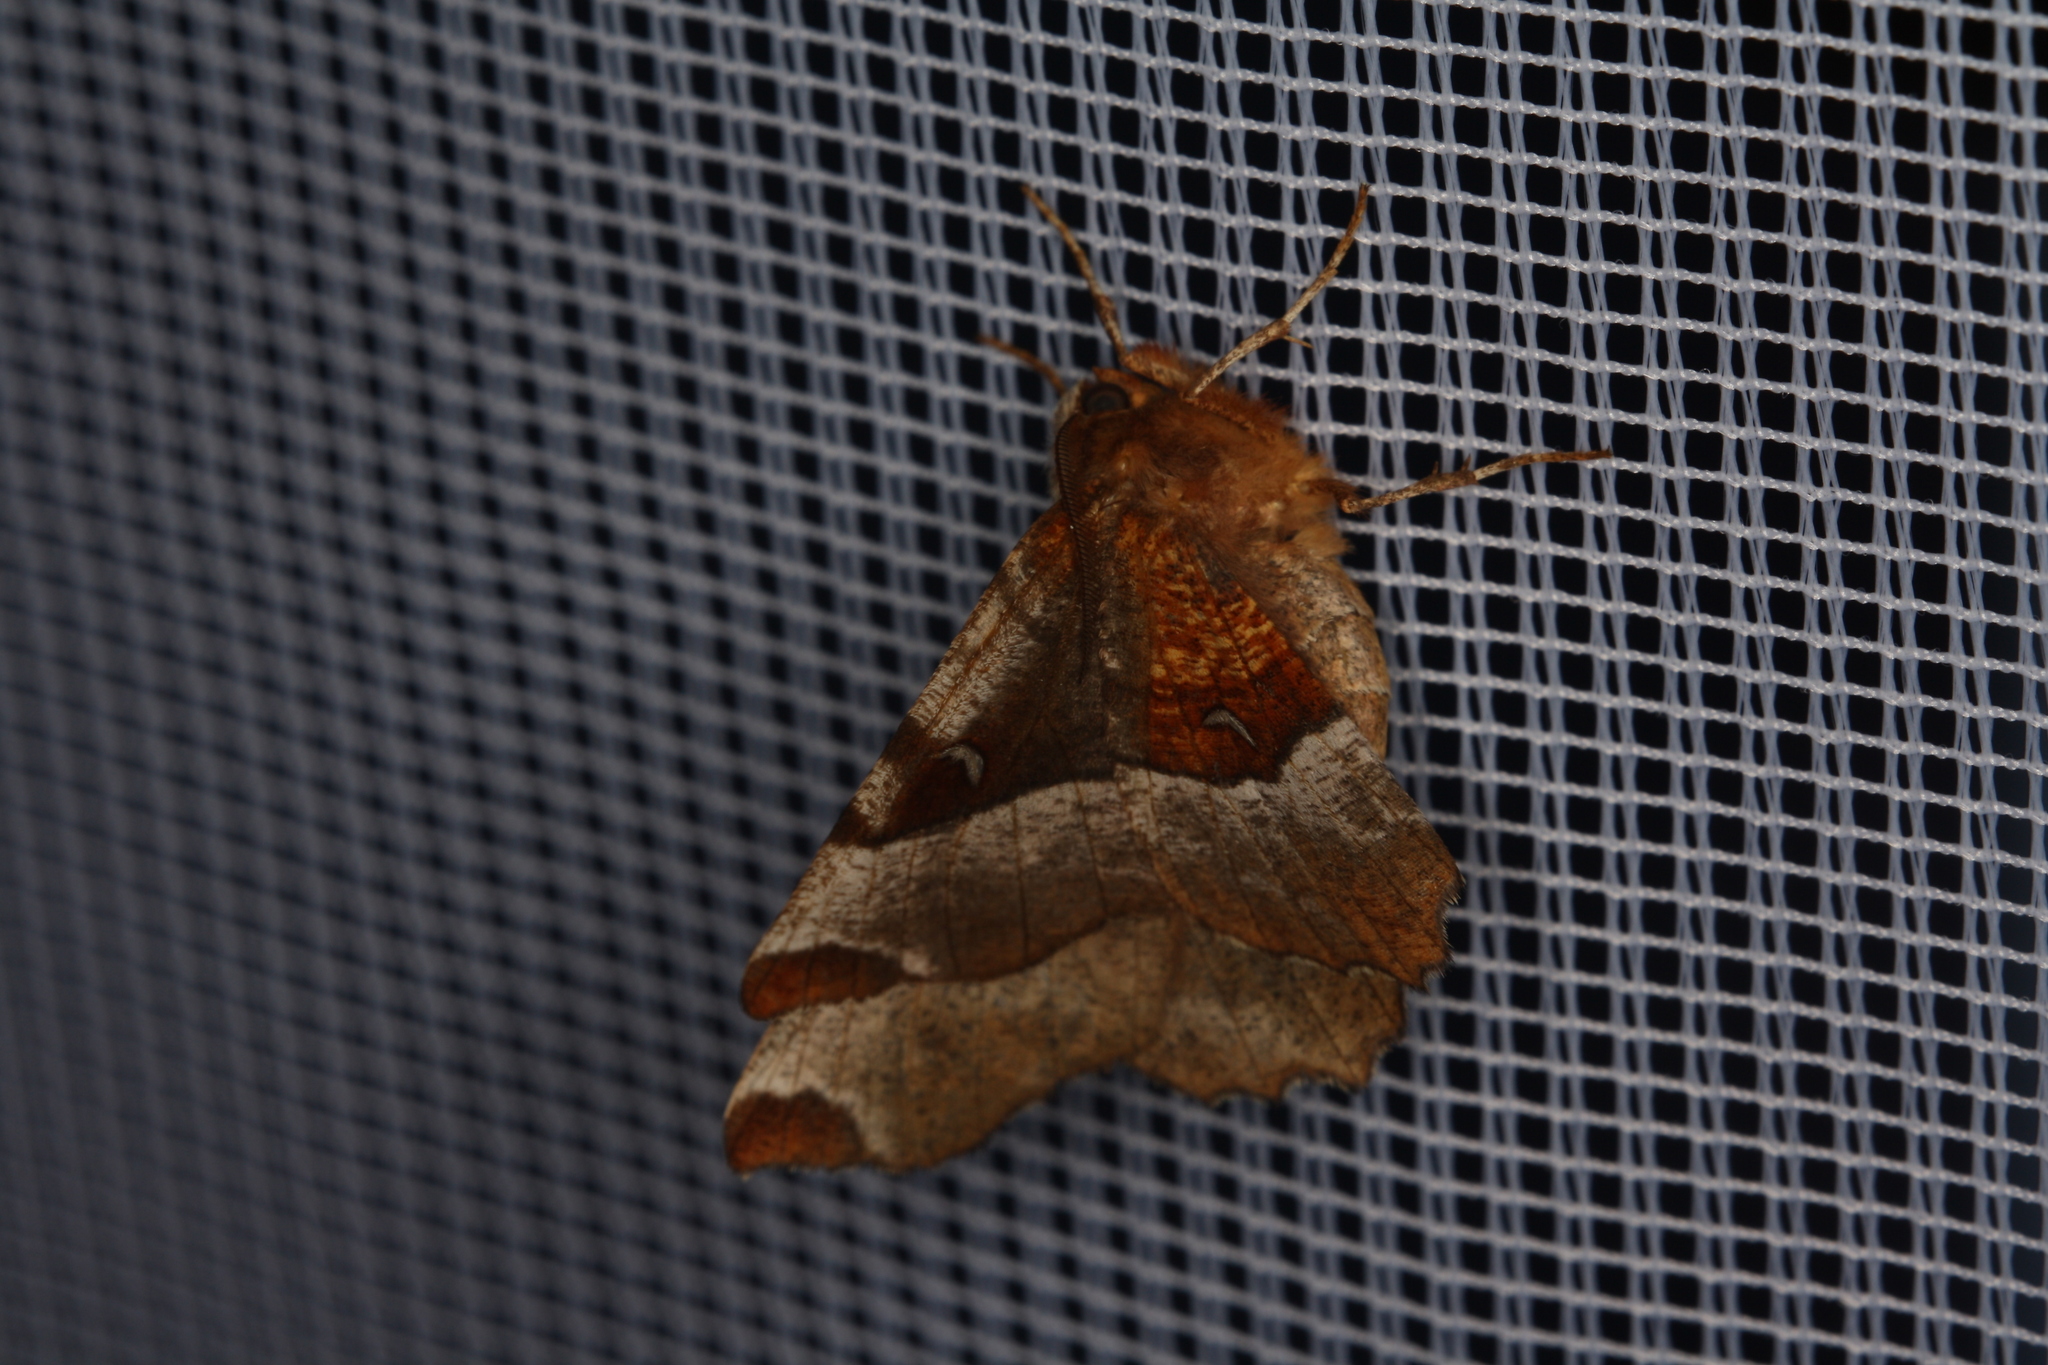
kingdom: Animalia
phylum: Arthropoda
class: Insecta
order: Lepidoptera
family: Geometridae
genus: Selenia
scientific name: Selenia tetralunaria
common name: Purple thorn
